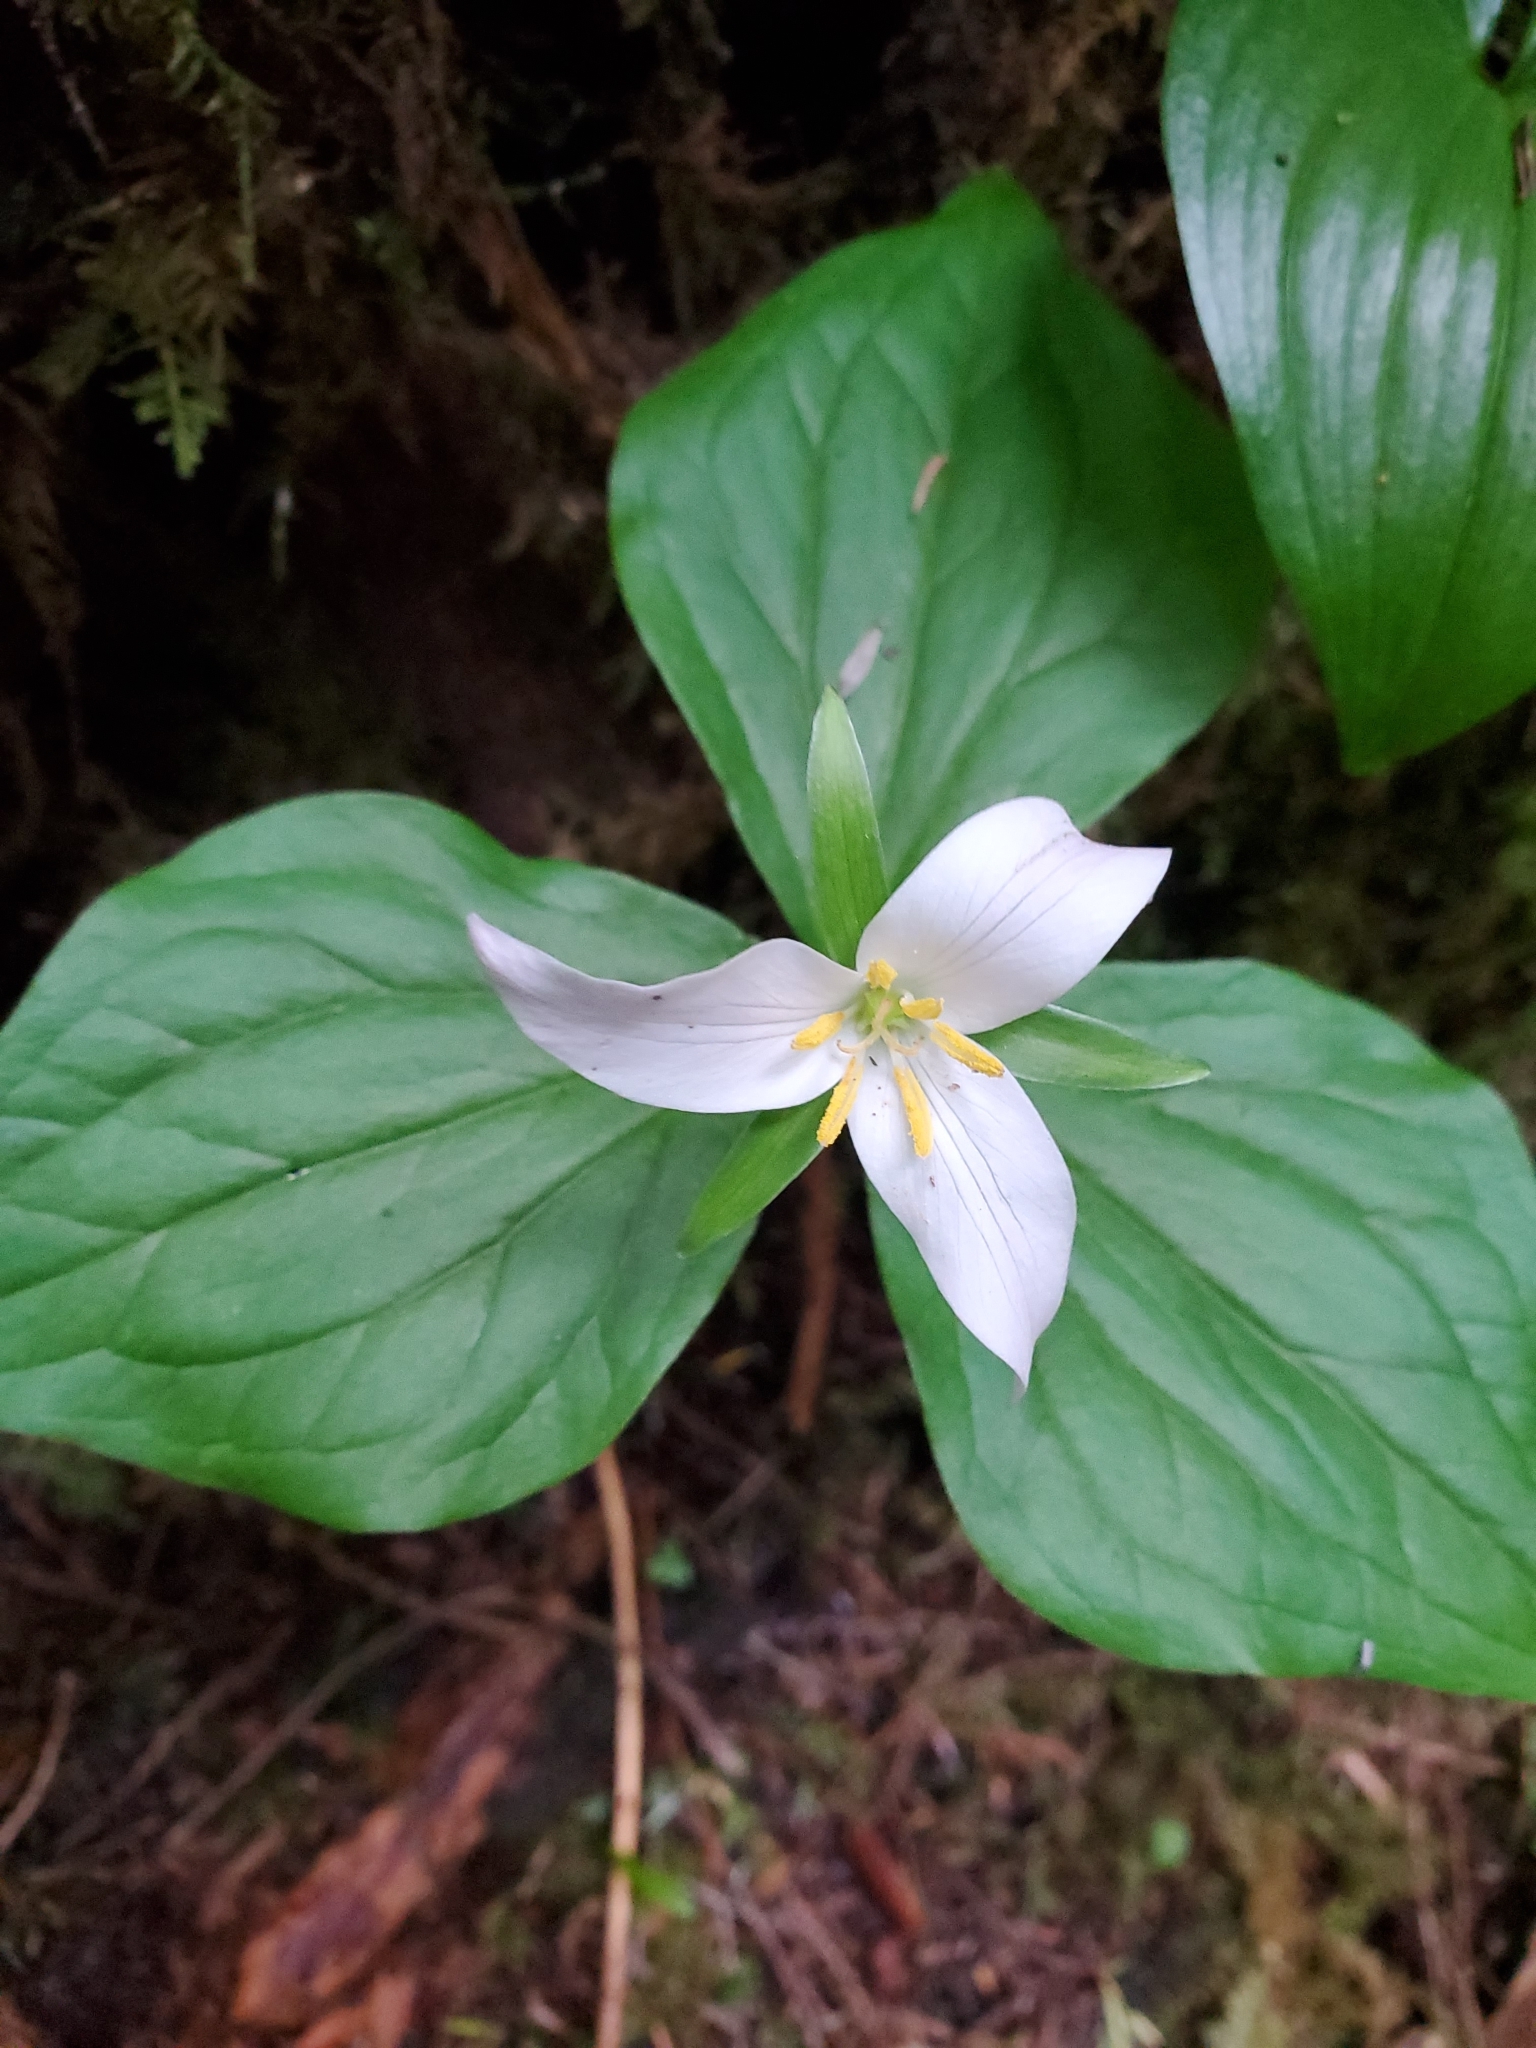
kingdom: Plantae
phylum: Tracheophyta
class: Liliopsida
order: Liliales
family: Melanthiaceae
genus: Trillium
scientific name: Trillium ovatum
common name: Pacific trillium
